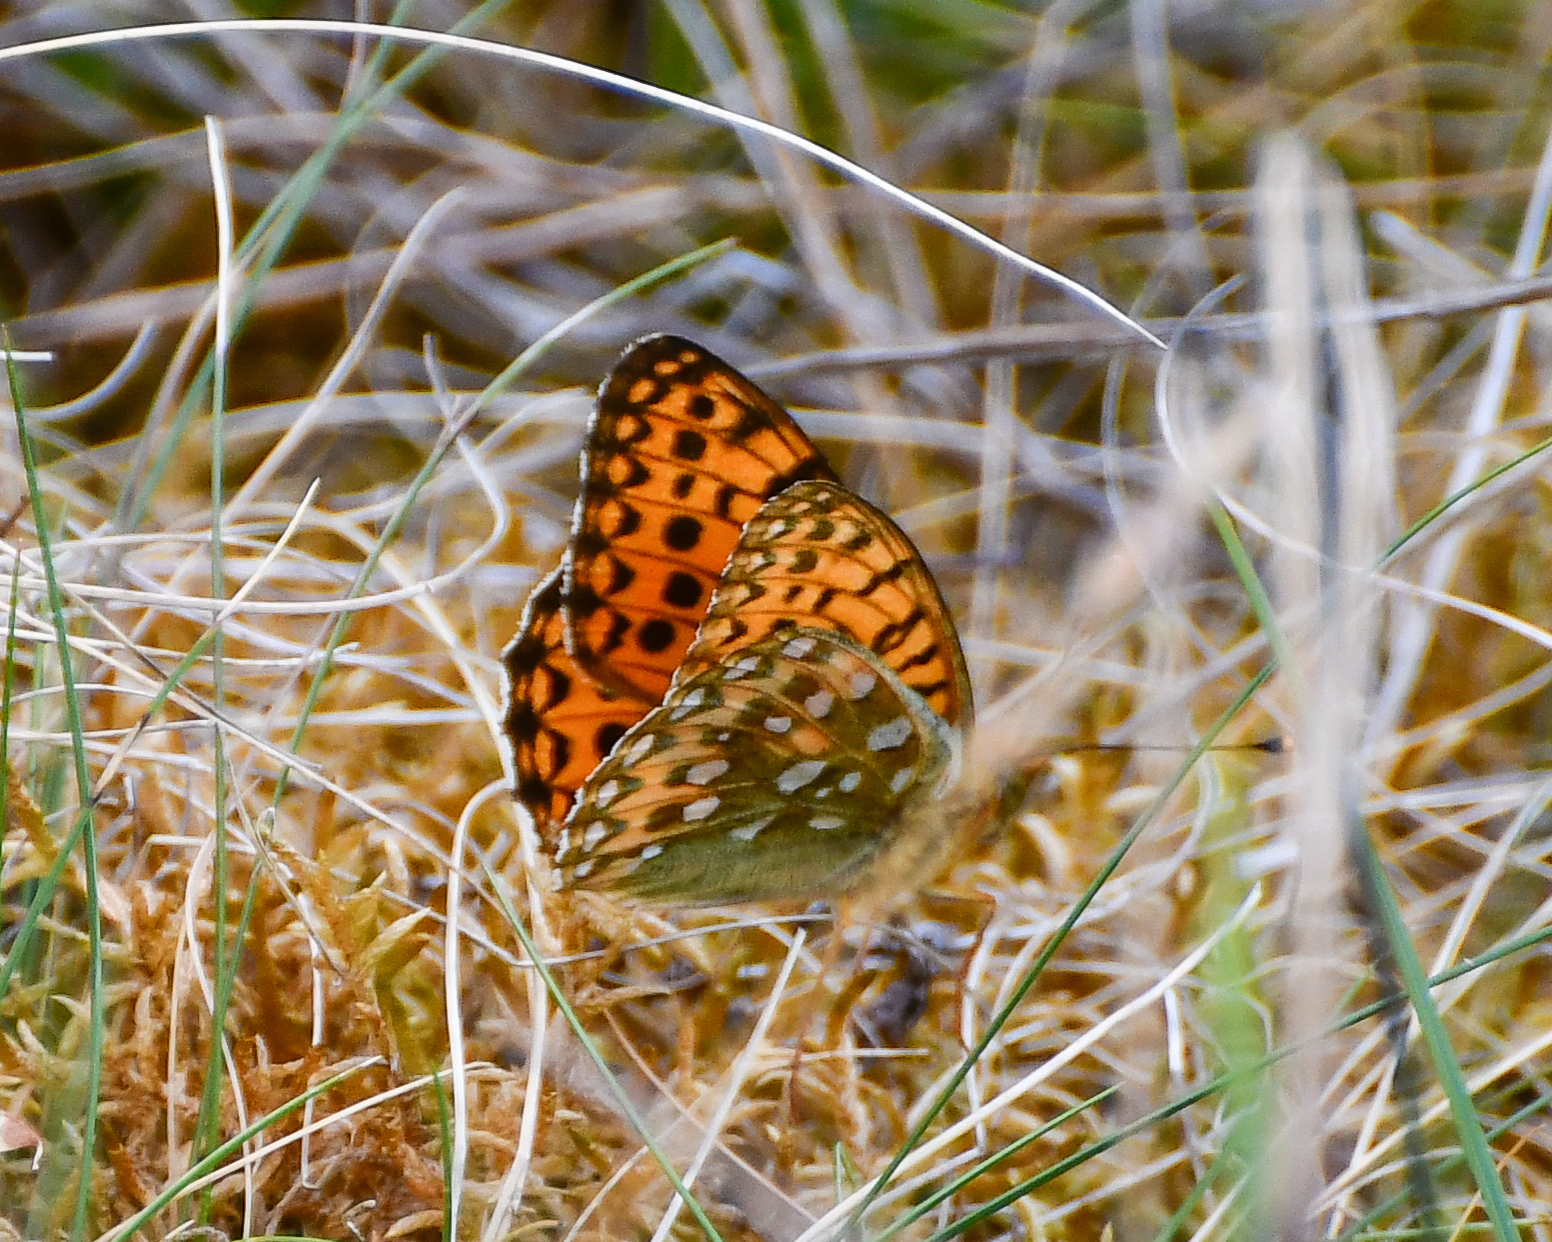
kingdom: Animalia
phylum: Arthropoda
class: Insecta
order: Lepidoptera
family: Nymphalidae
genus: Speyeria
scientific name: Speyeria aglaja
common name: Dark green fritillary
